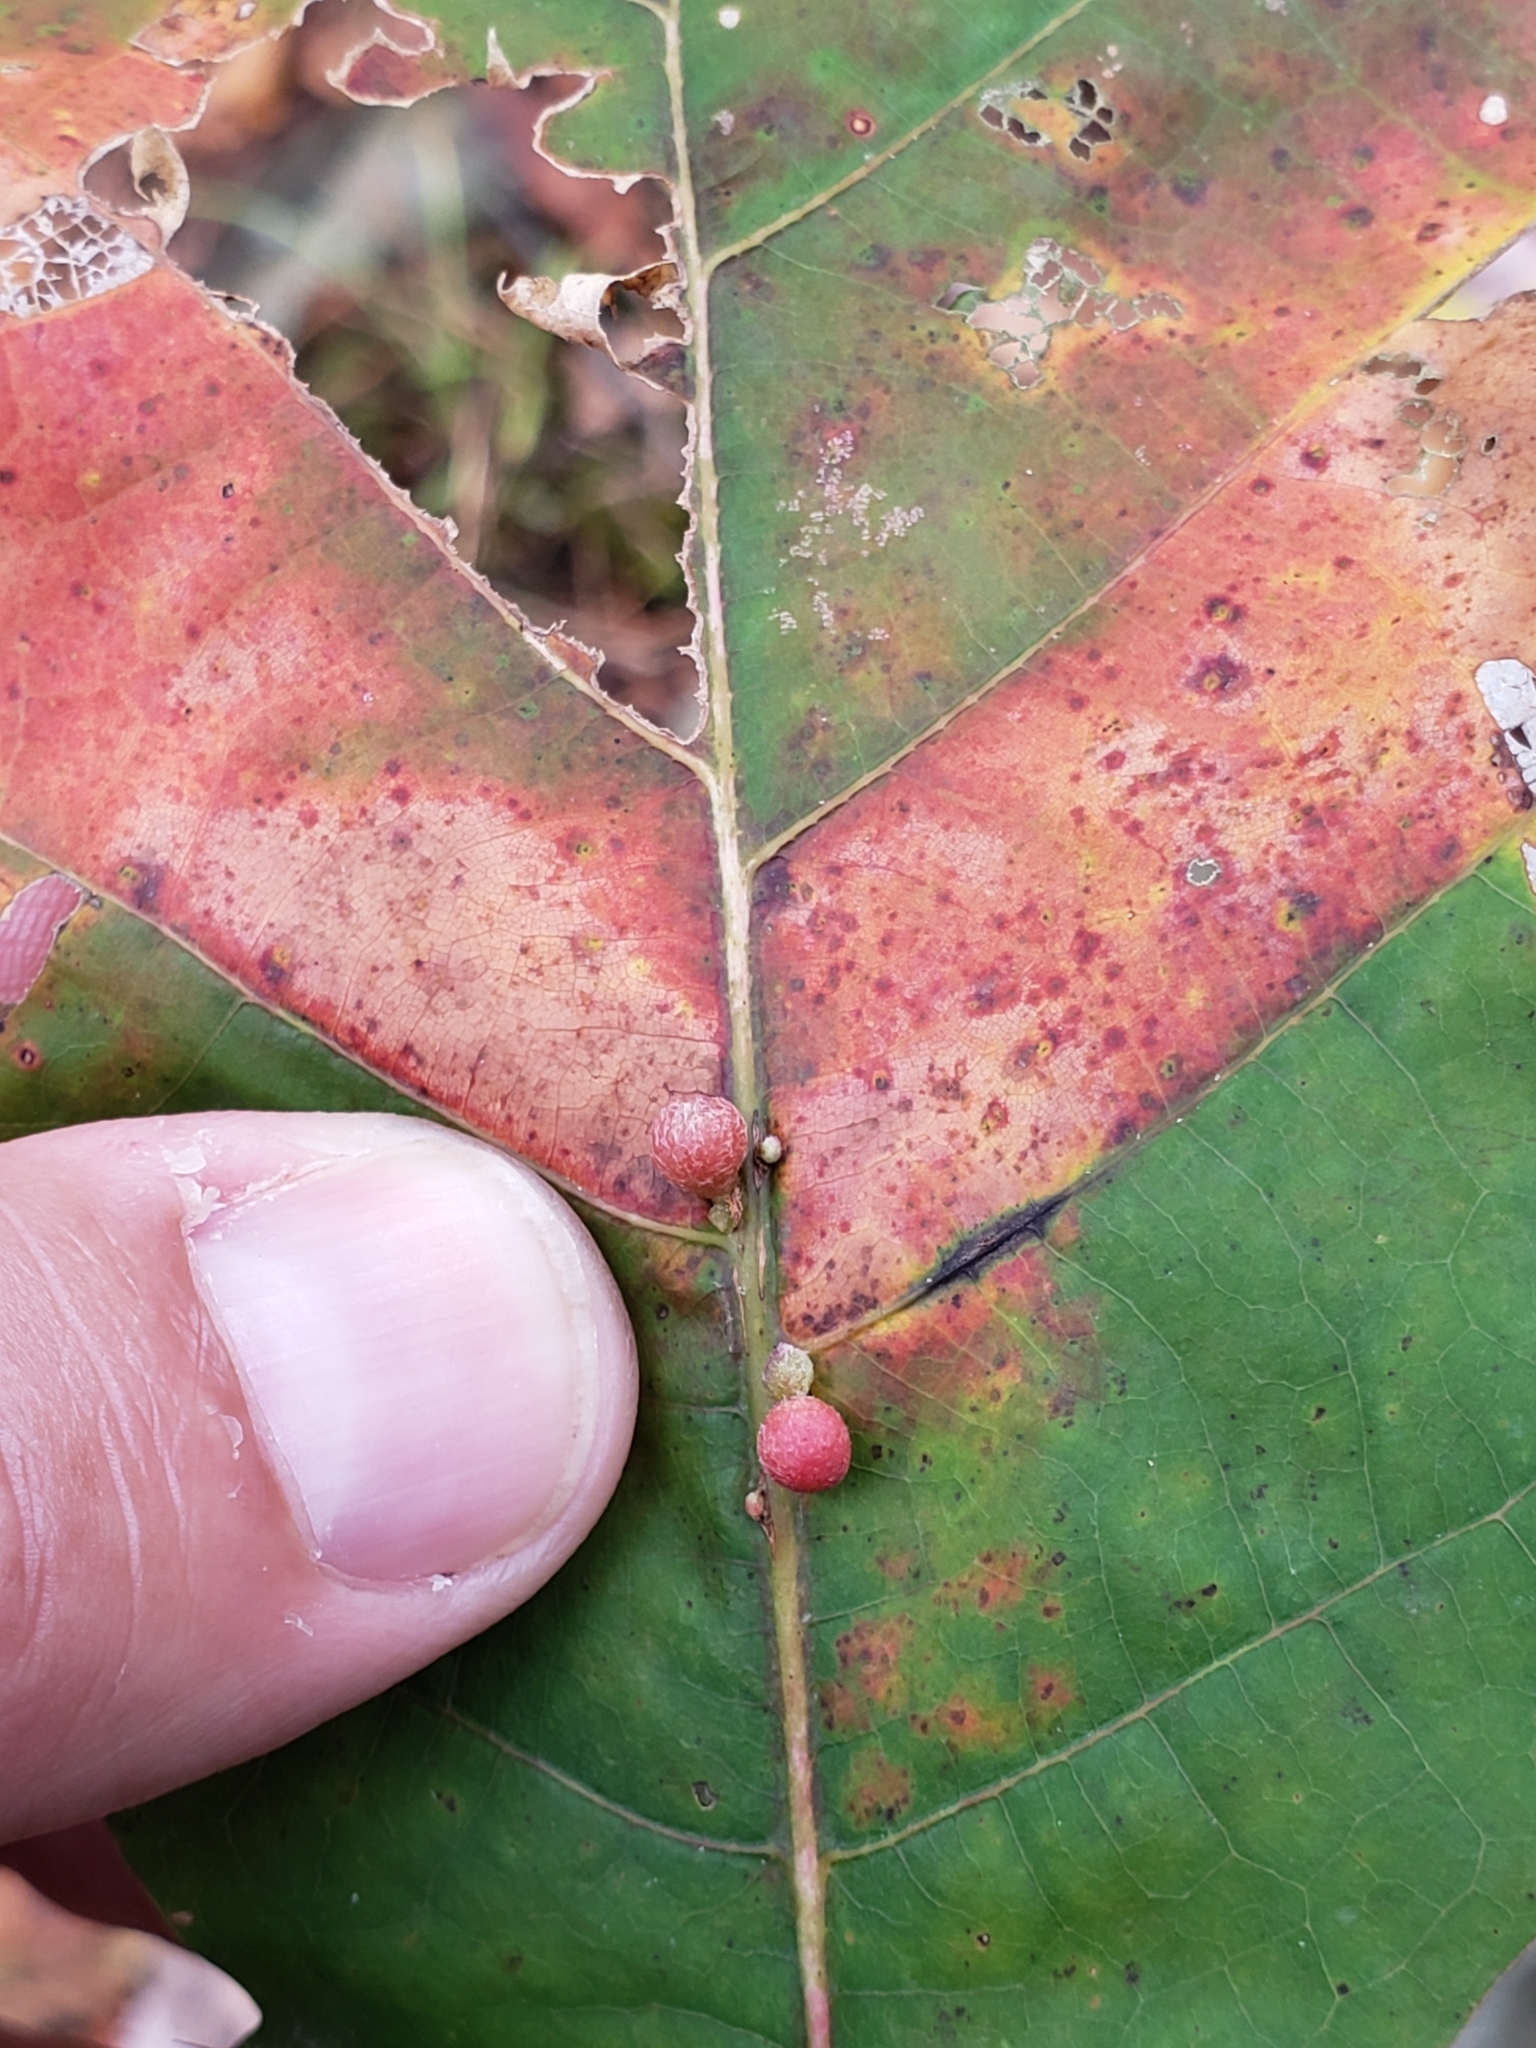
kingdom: Animalia
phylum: Arthropoda
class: Insecta
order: Hymenoptera
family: Cynipidae
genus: Callirhytis
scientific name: Callirhytis
